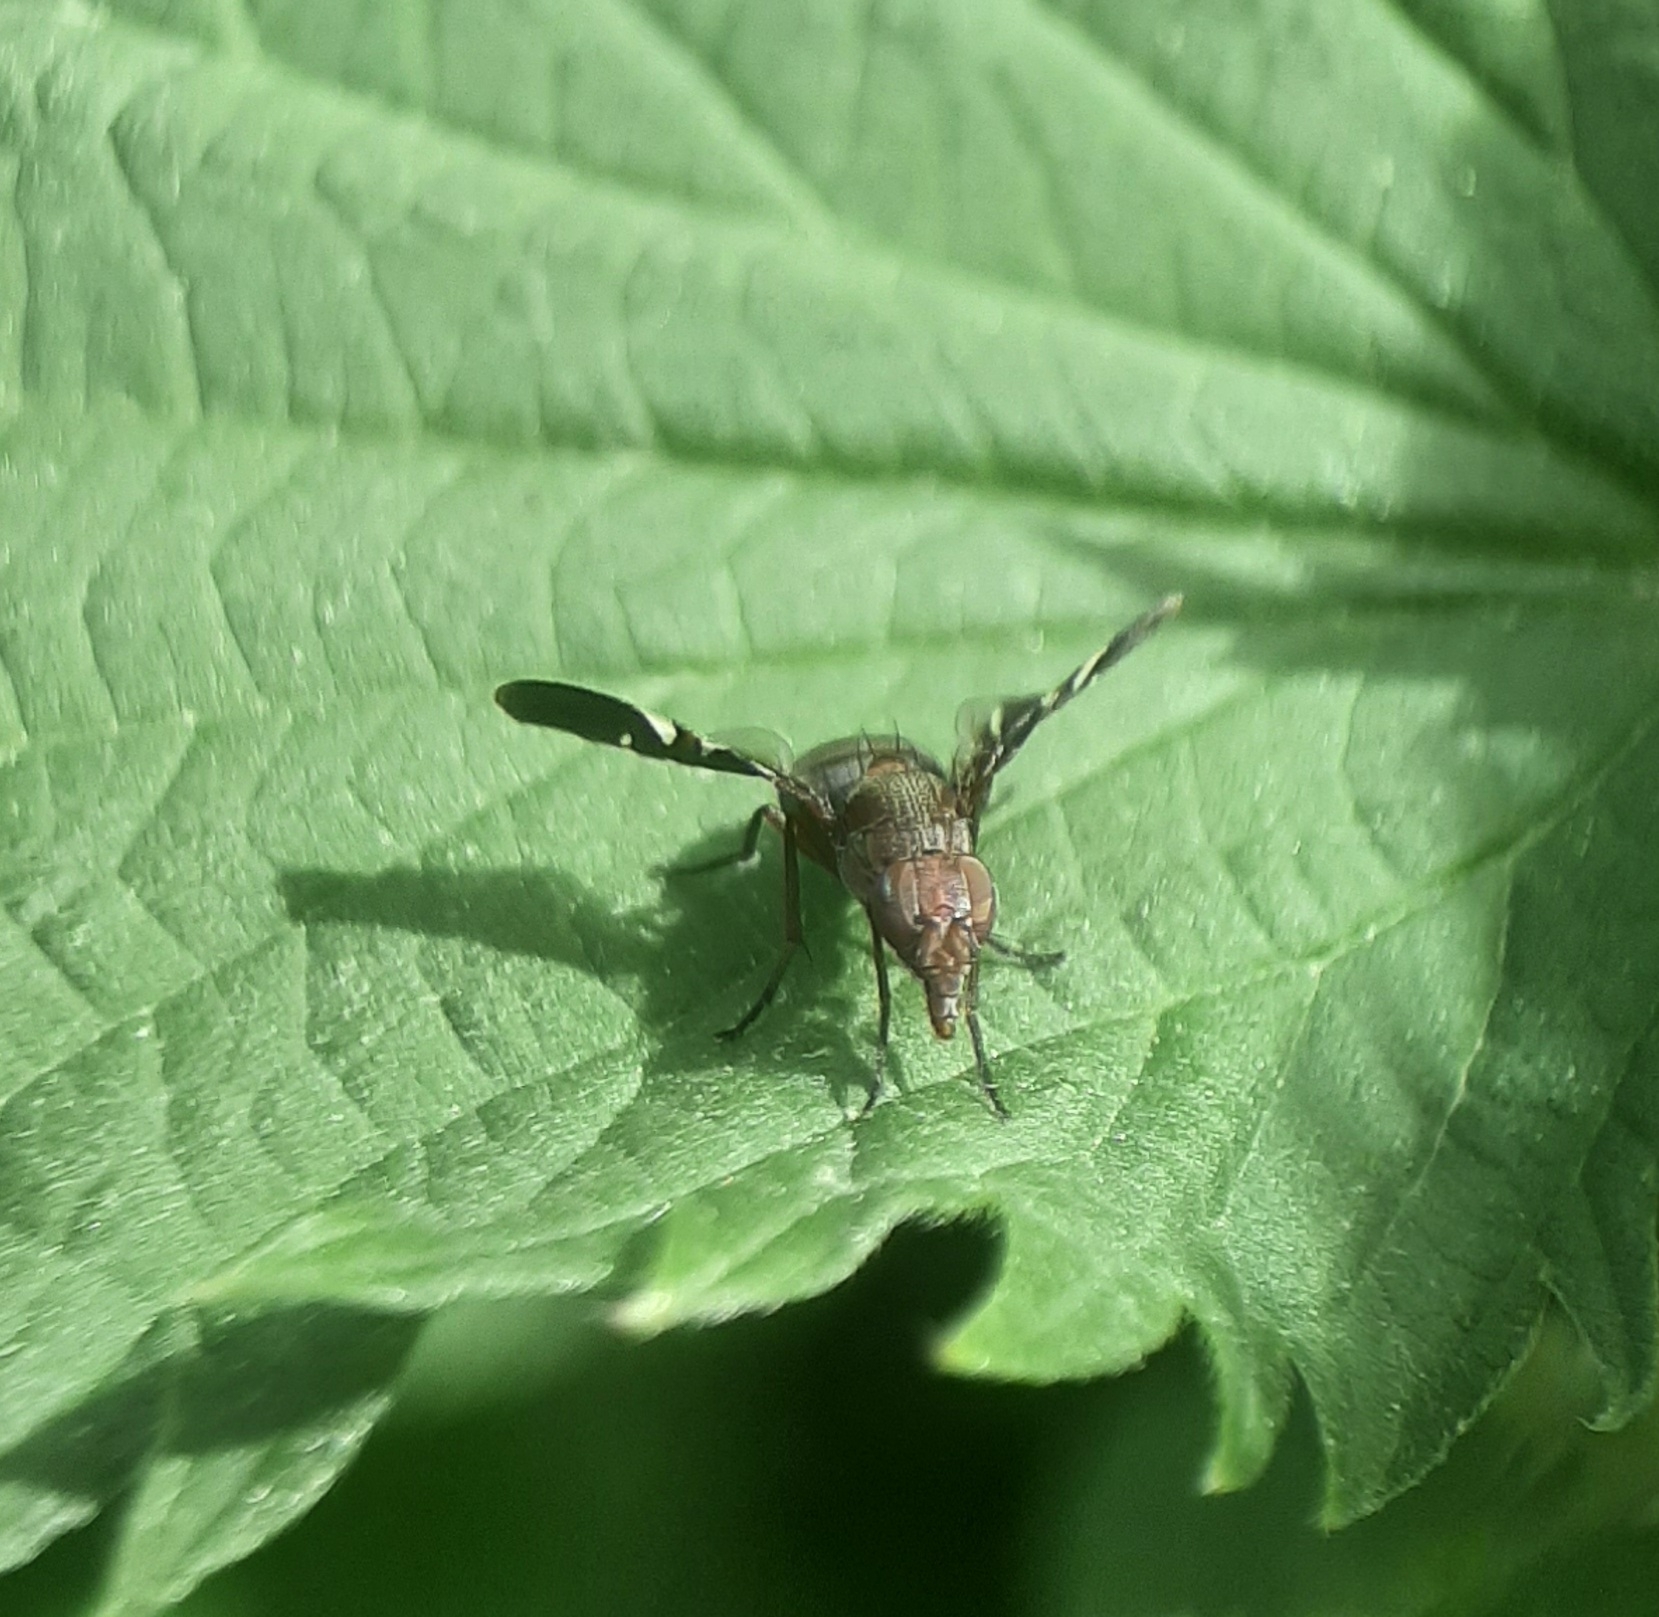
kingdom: Animalia
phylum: Arthropoda
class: Insecta
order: Diptera
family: Ulidiidae
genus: Delphinia
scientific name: Delphinia picta
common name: Common picture-winged fly
